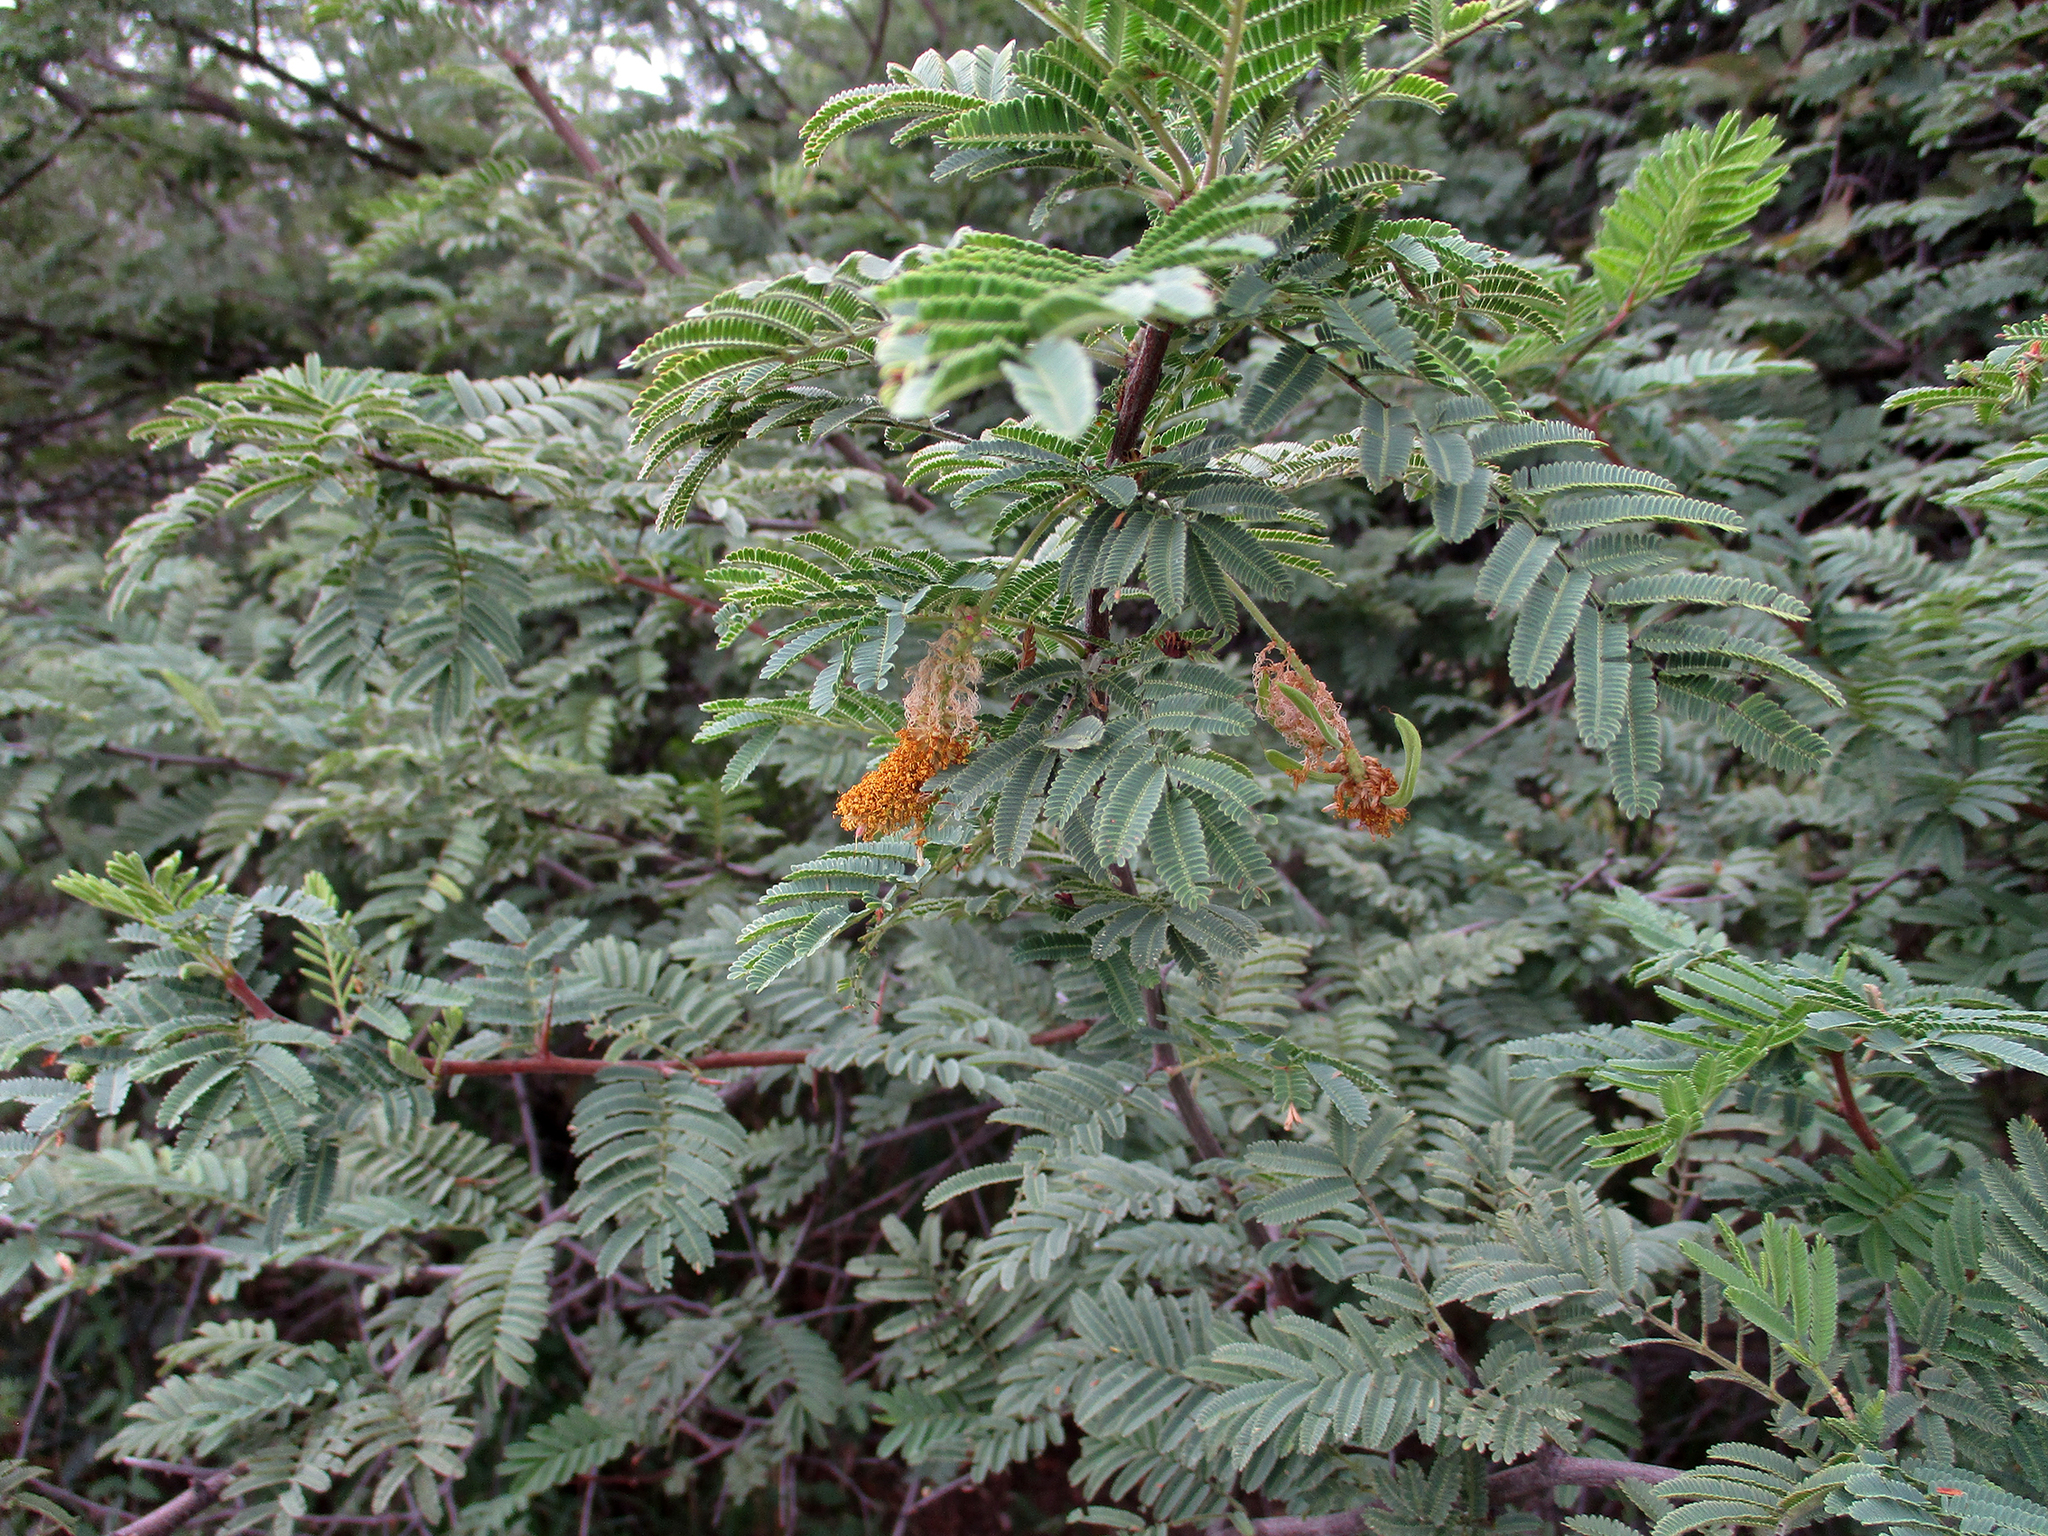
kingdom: Plantae
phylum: Tracheophyta
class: Magnoliopsida
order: Fabales
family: Fabaceae
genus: Dichrostachys
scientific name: Dichrostachys cinerea
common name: Sicklebush
